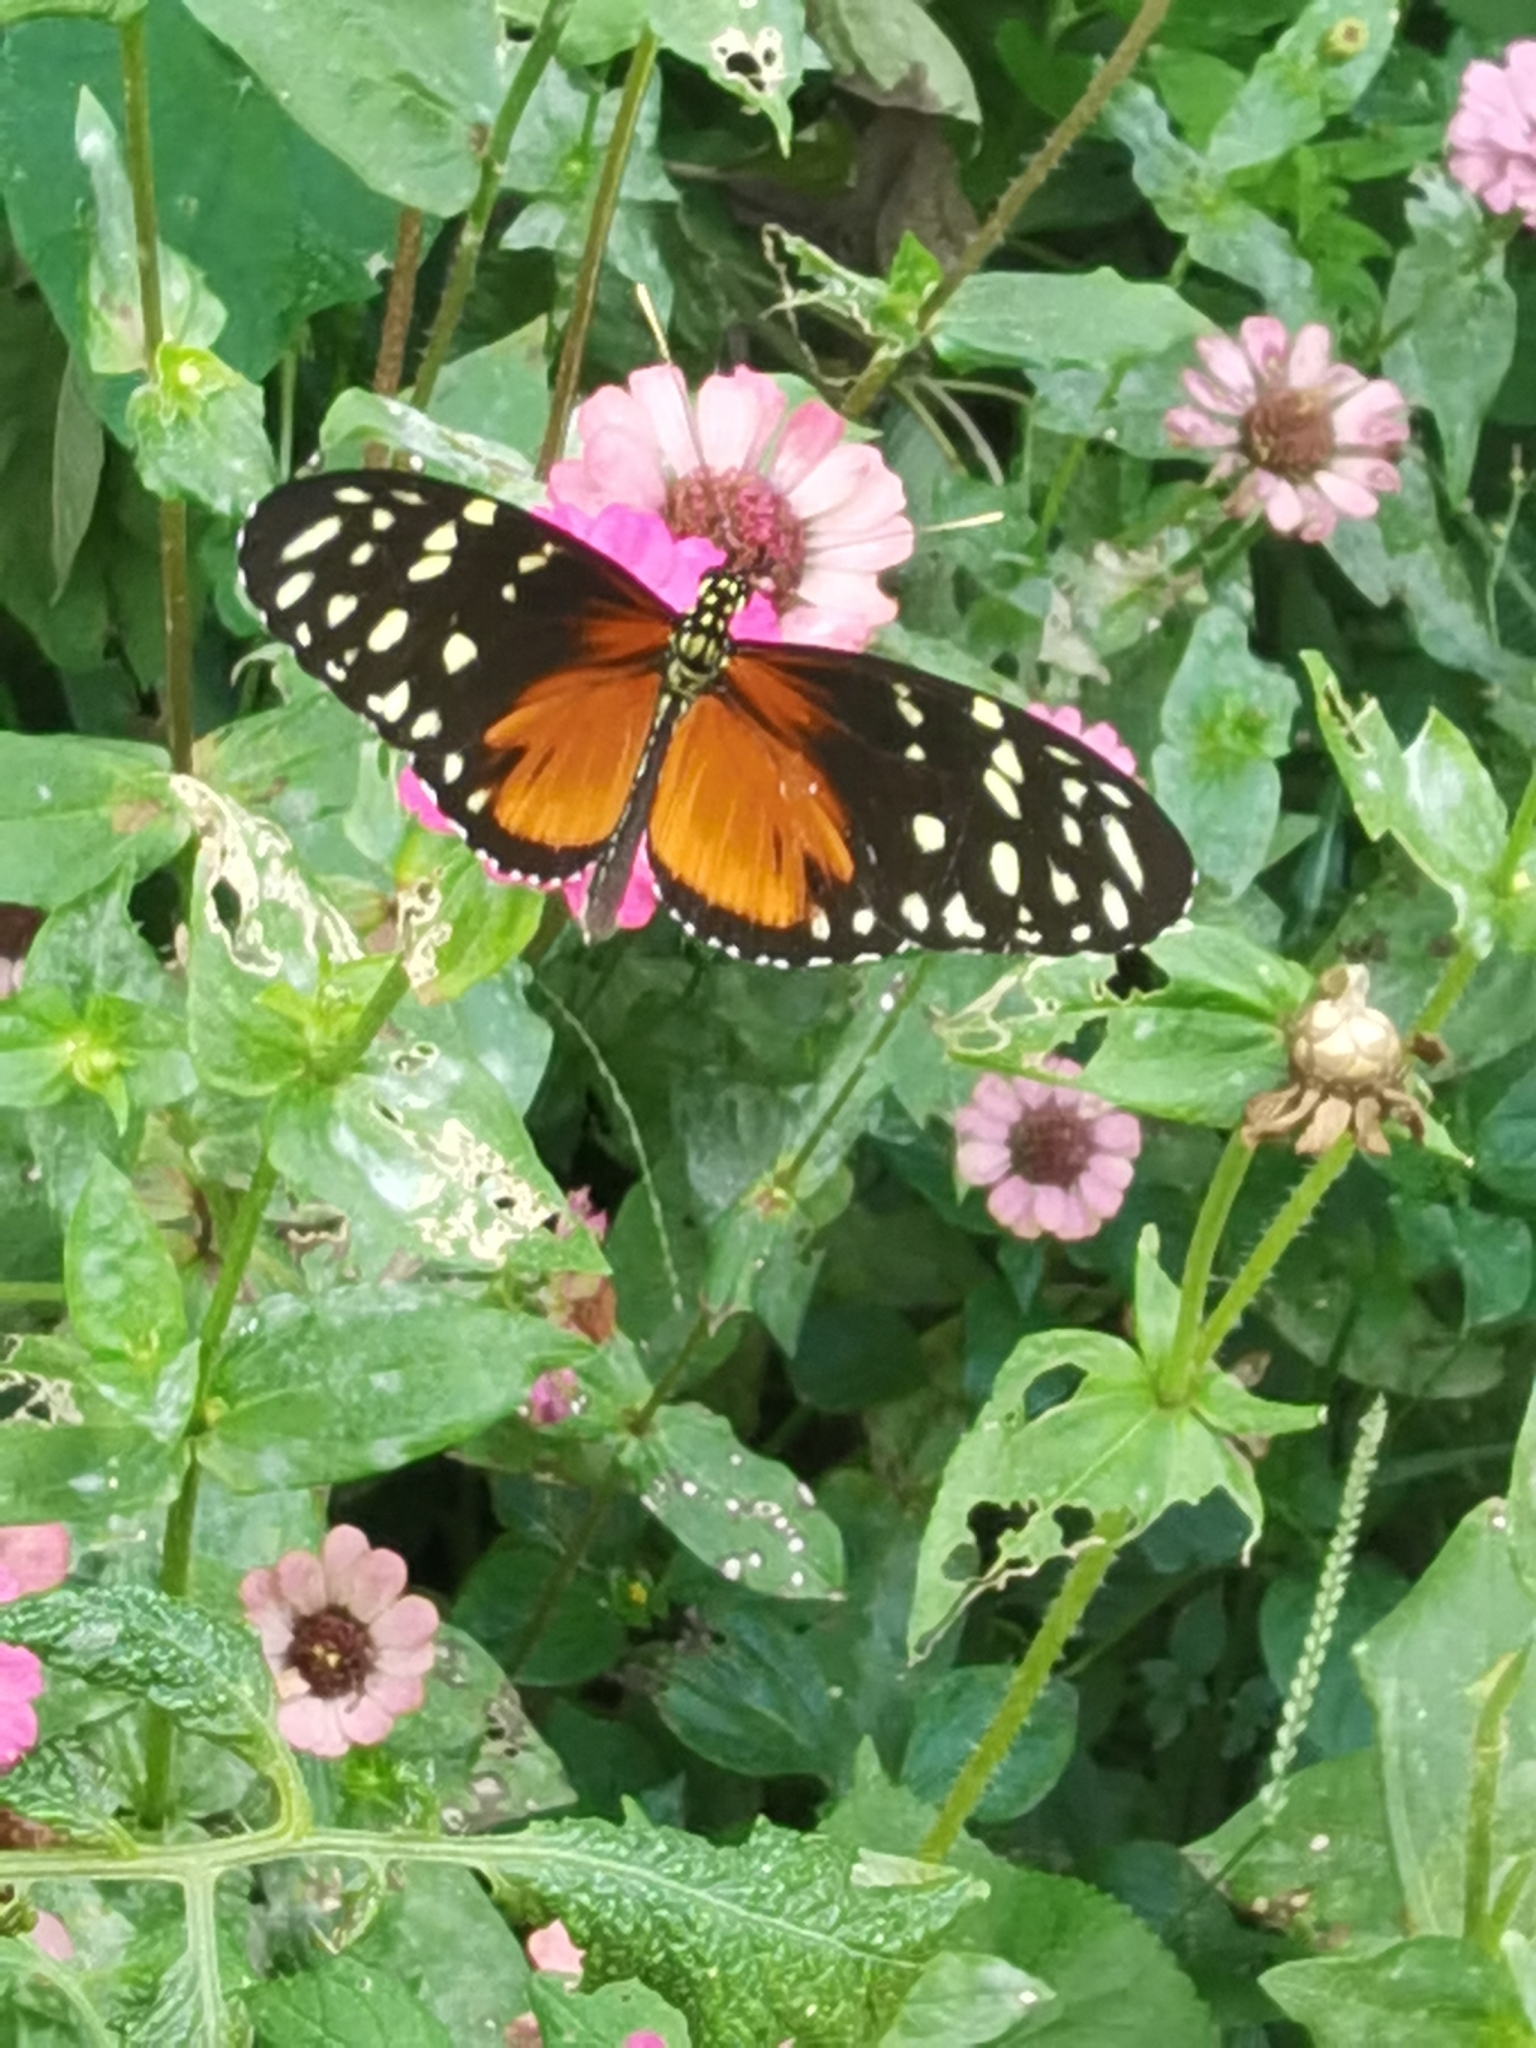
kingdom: Animalia
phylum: Arthropoda
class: Insecta
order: Lepidoptera
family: Nymphalidae
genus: Heliconius
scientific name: Heliconius hecale
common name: Tiger longwing
